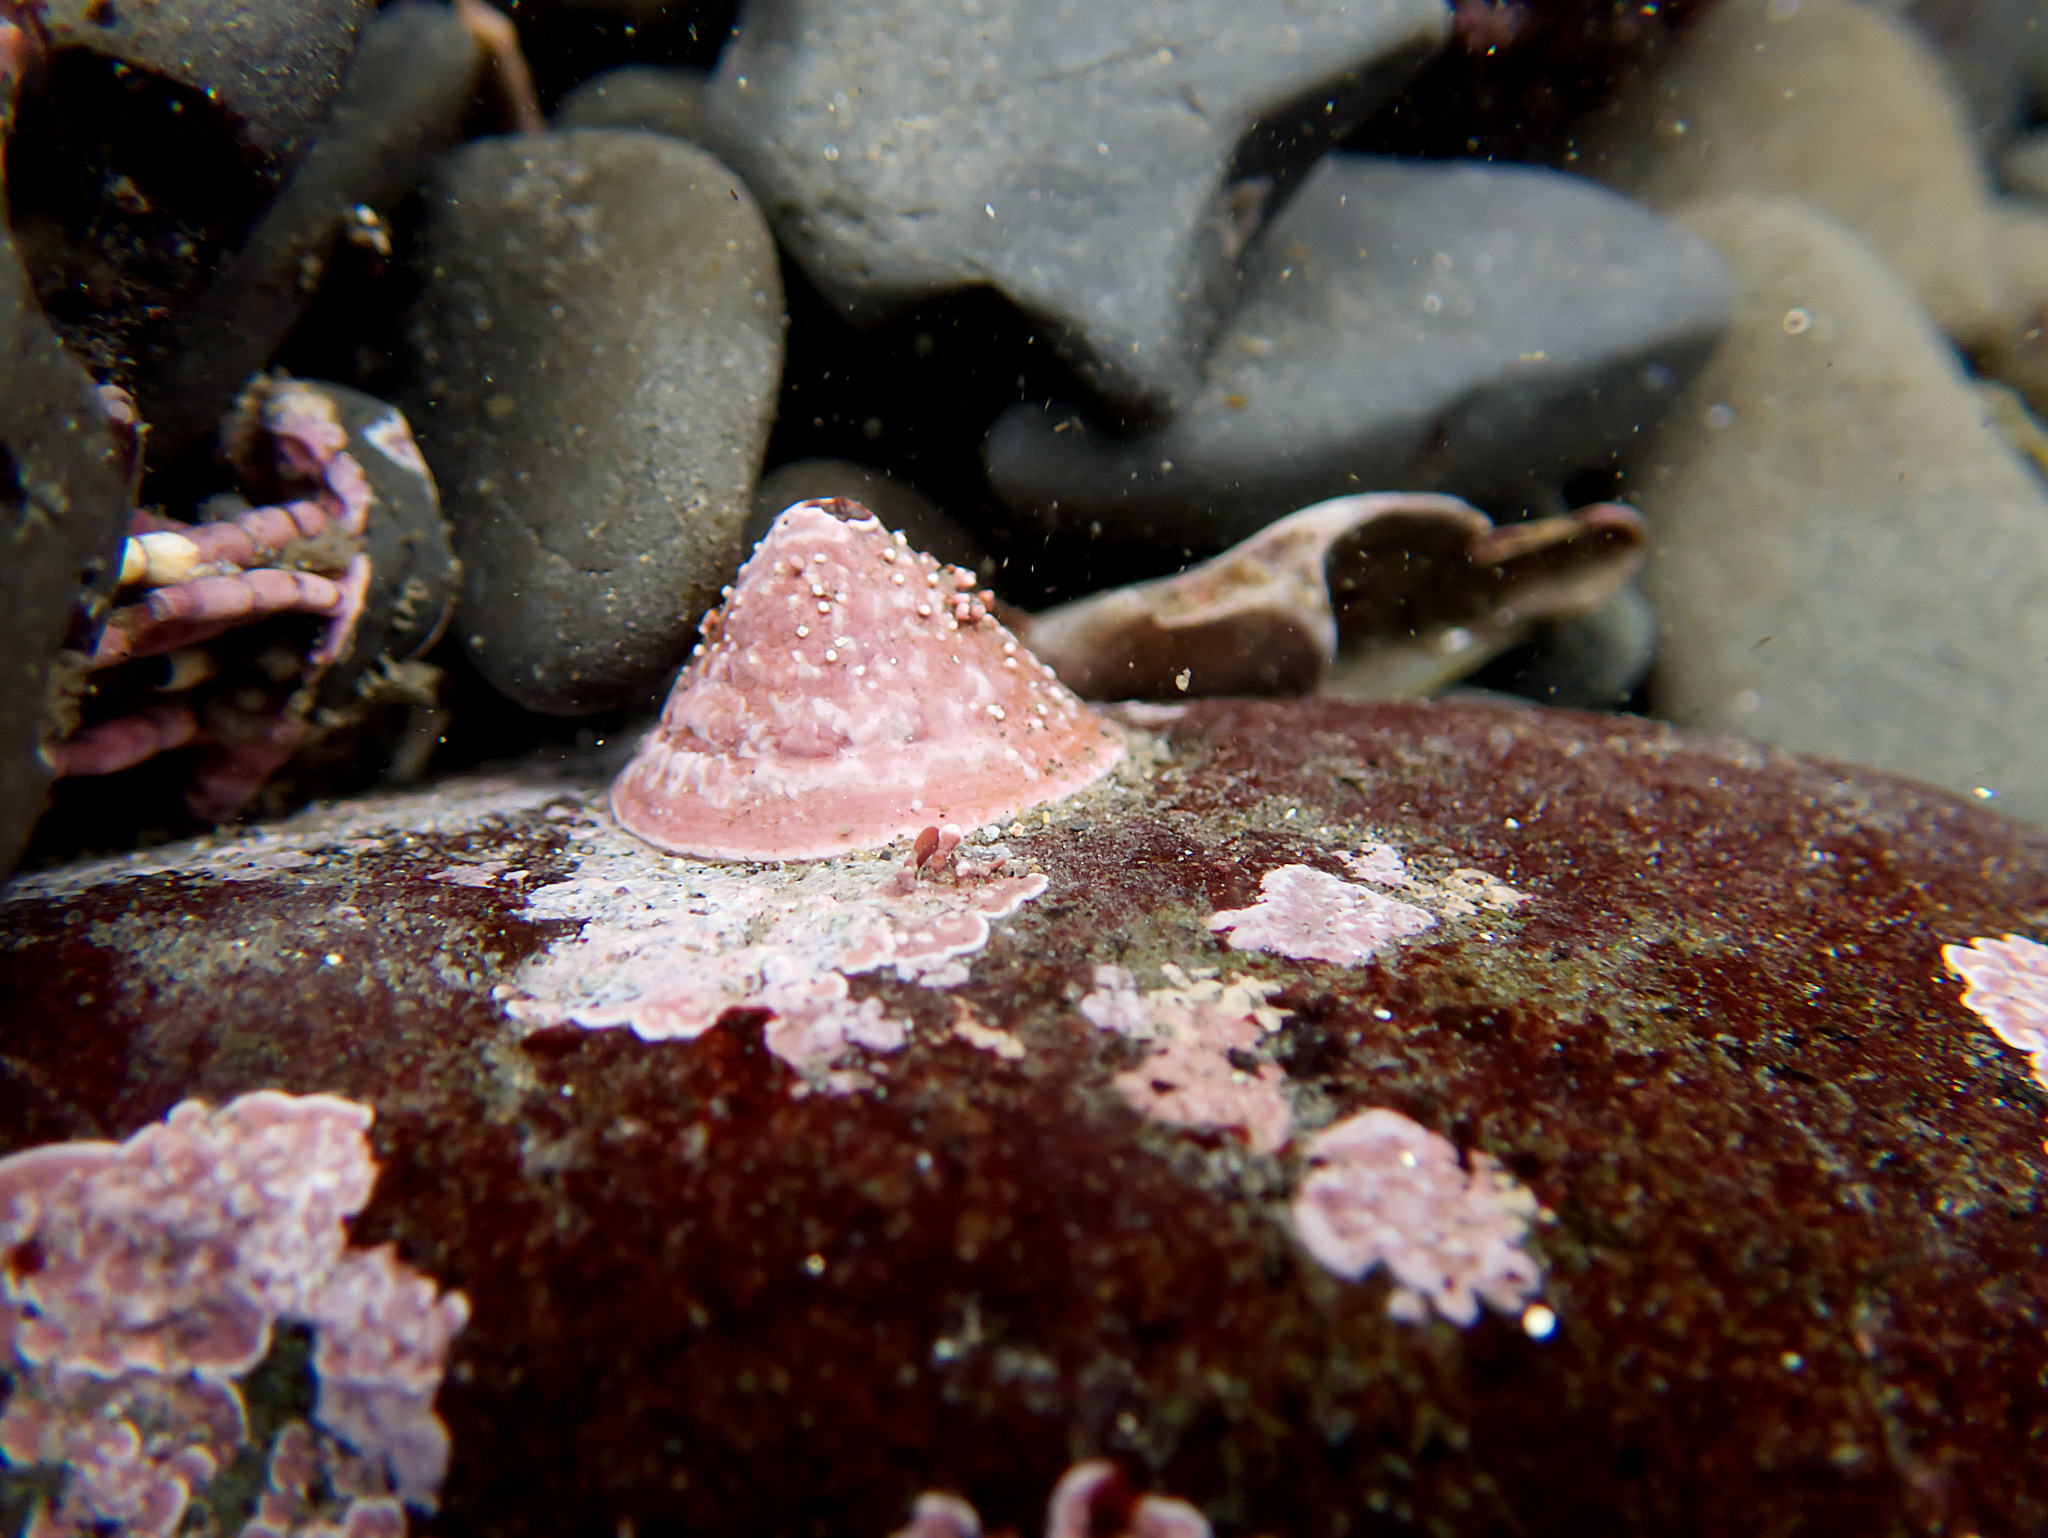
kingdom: Animalia
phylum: Mollusca
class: Gastropoda
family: Acmaeidae
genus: Acmaea
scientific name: Acmaea mitra
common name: Pacific white cap limpet
